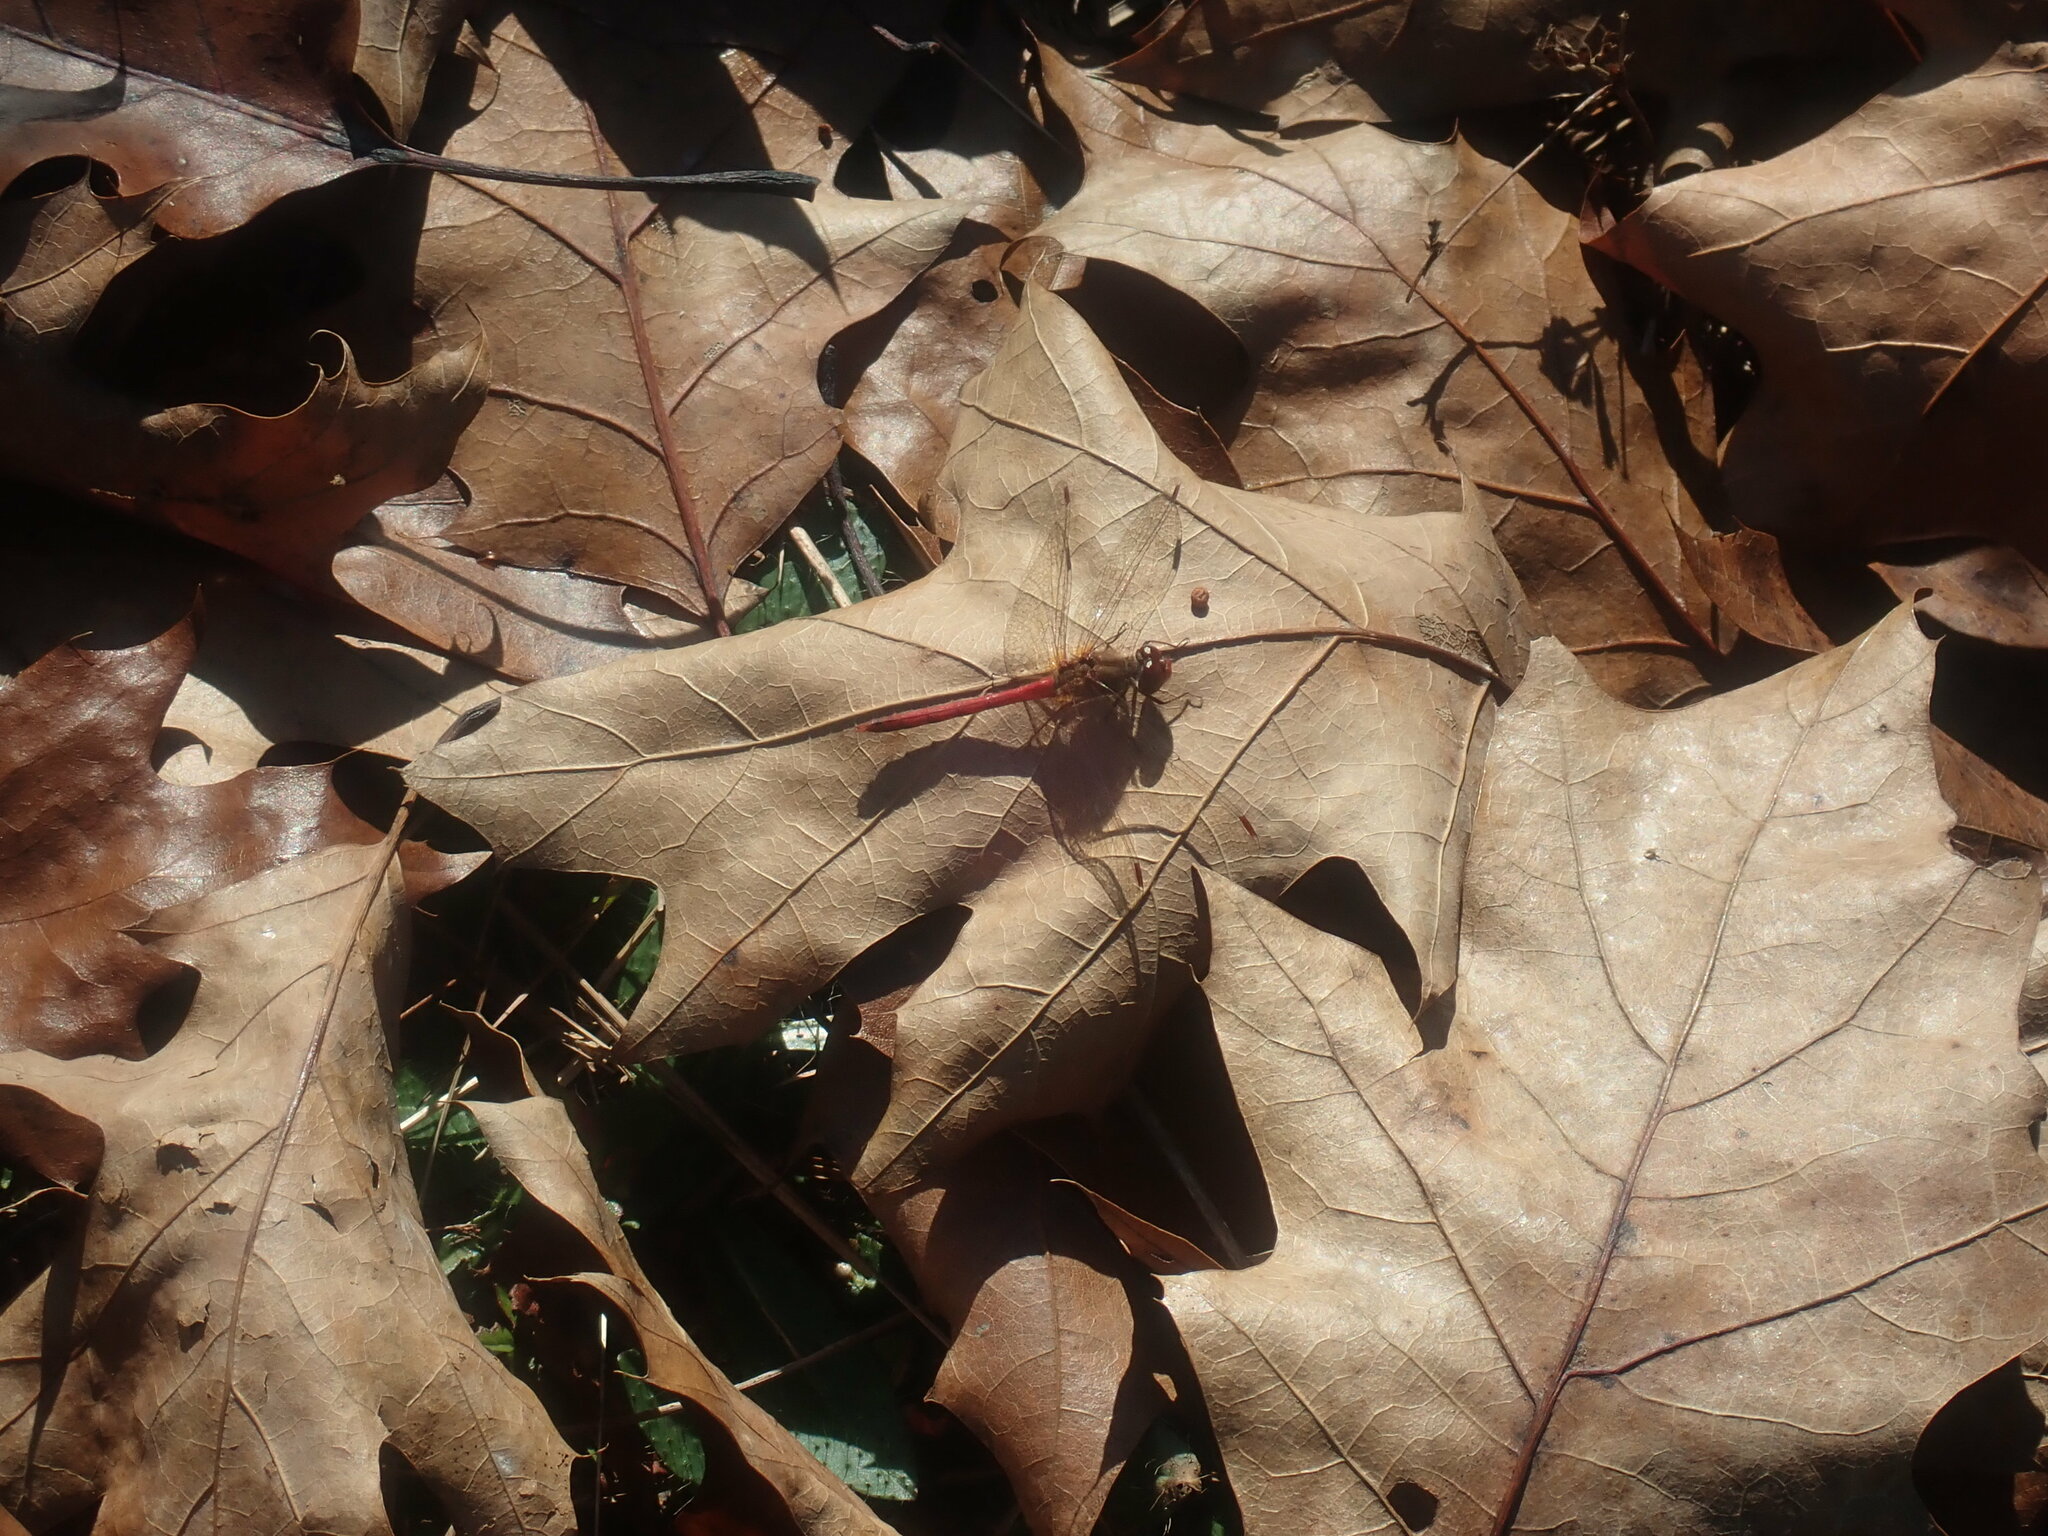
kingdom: Animalia
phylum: Arthropoda
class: Insecta
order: Odonata
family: Libellulidae
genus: Sympetrum
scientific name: Sympetrum vicinum
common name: Autumn meadowhawk
